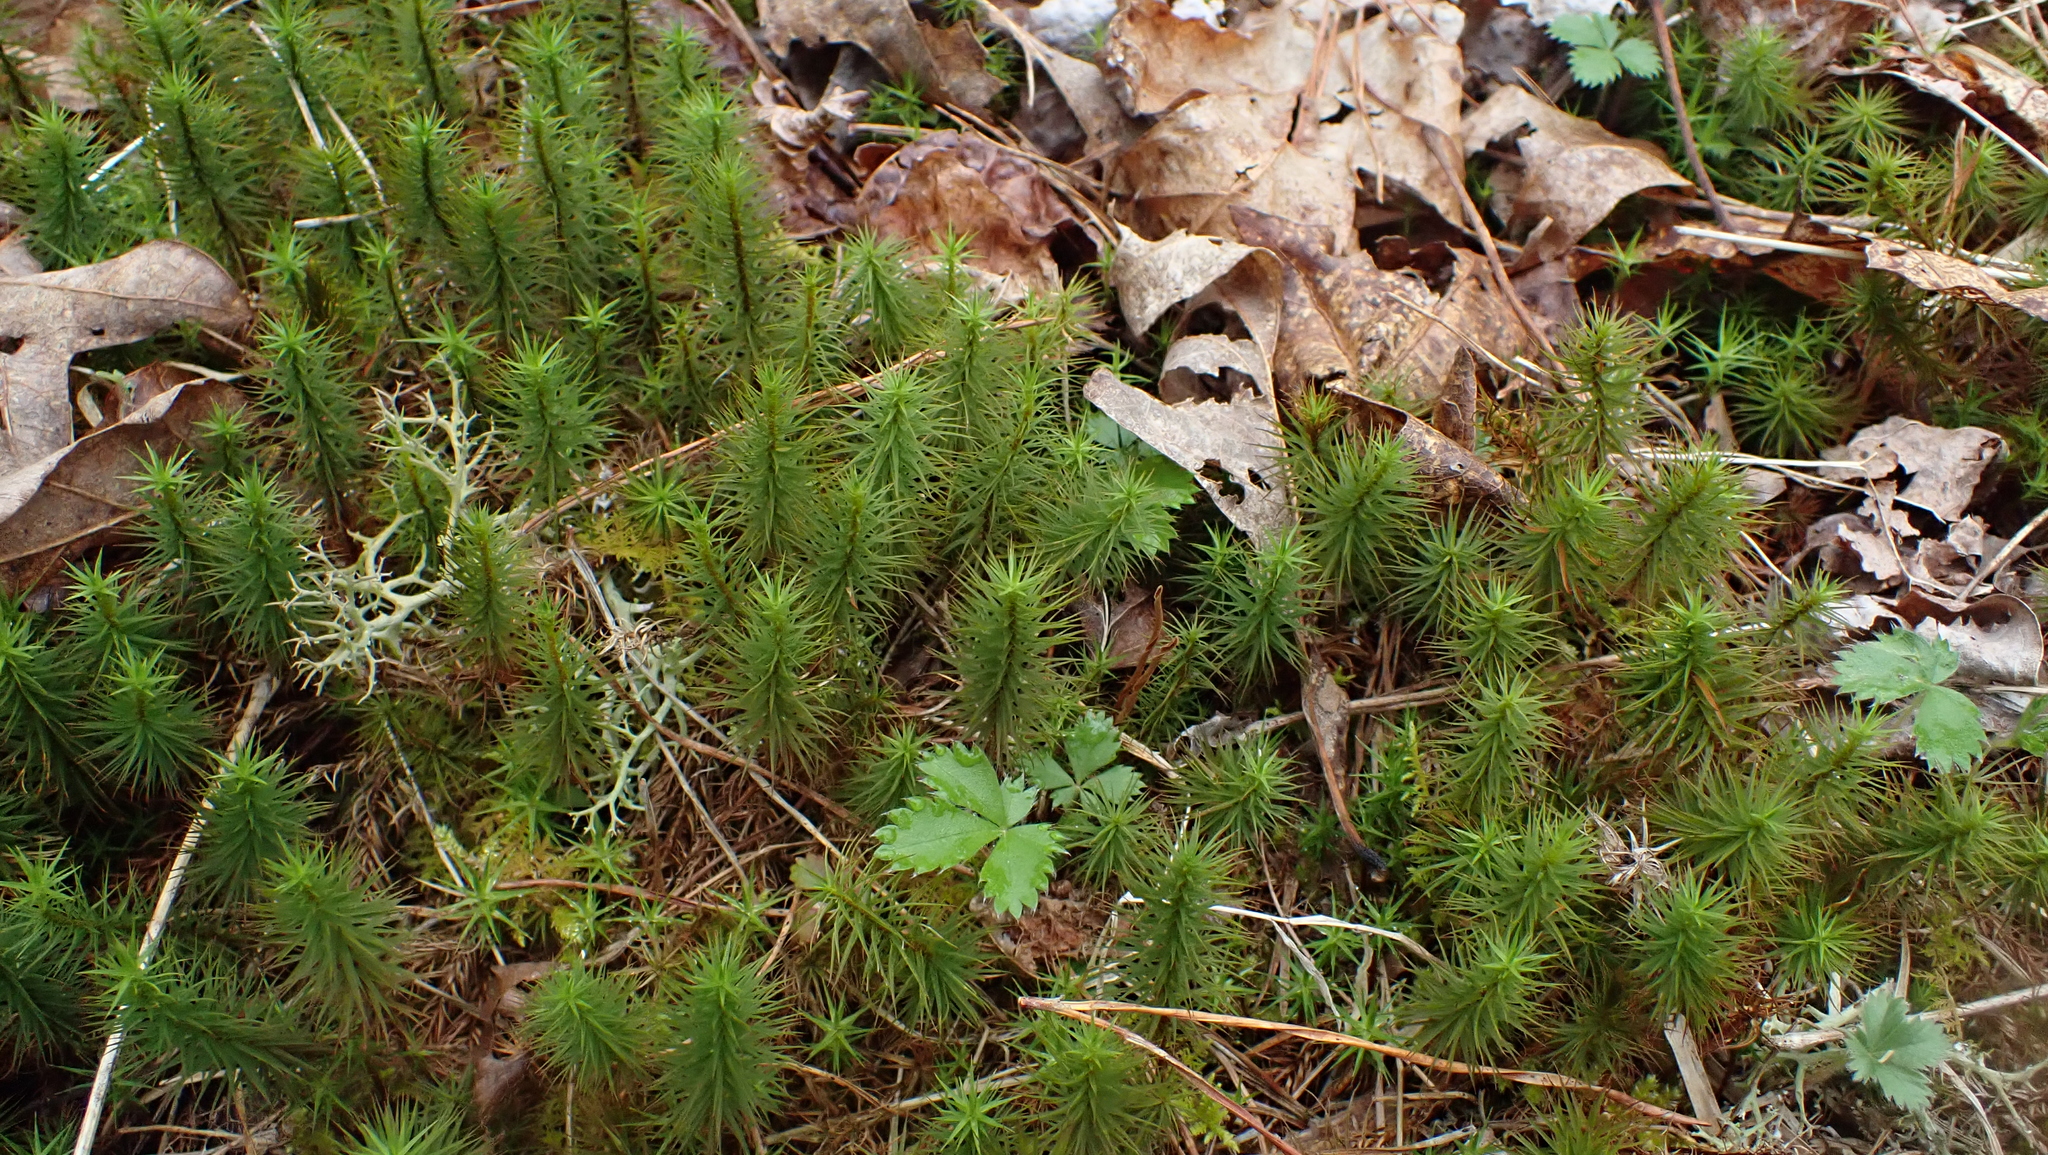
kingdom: Plantae
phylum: Tracheophyta
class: Lycopodiopsida
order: Lycopodiales
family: Lycopodiaceae
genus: Huperzia
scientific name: Huperzia lucidula
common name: Shining clubmoss
